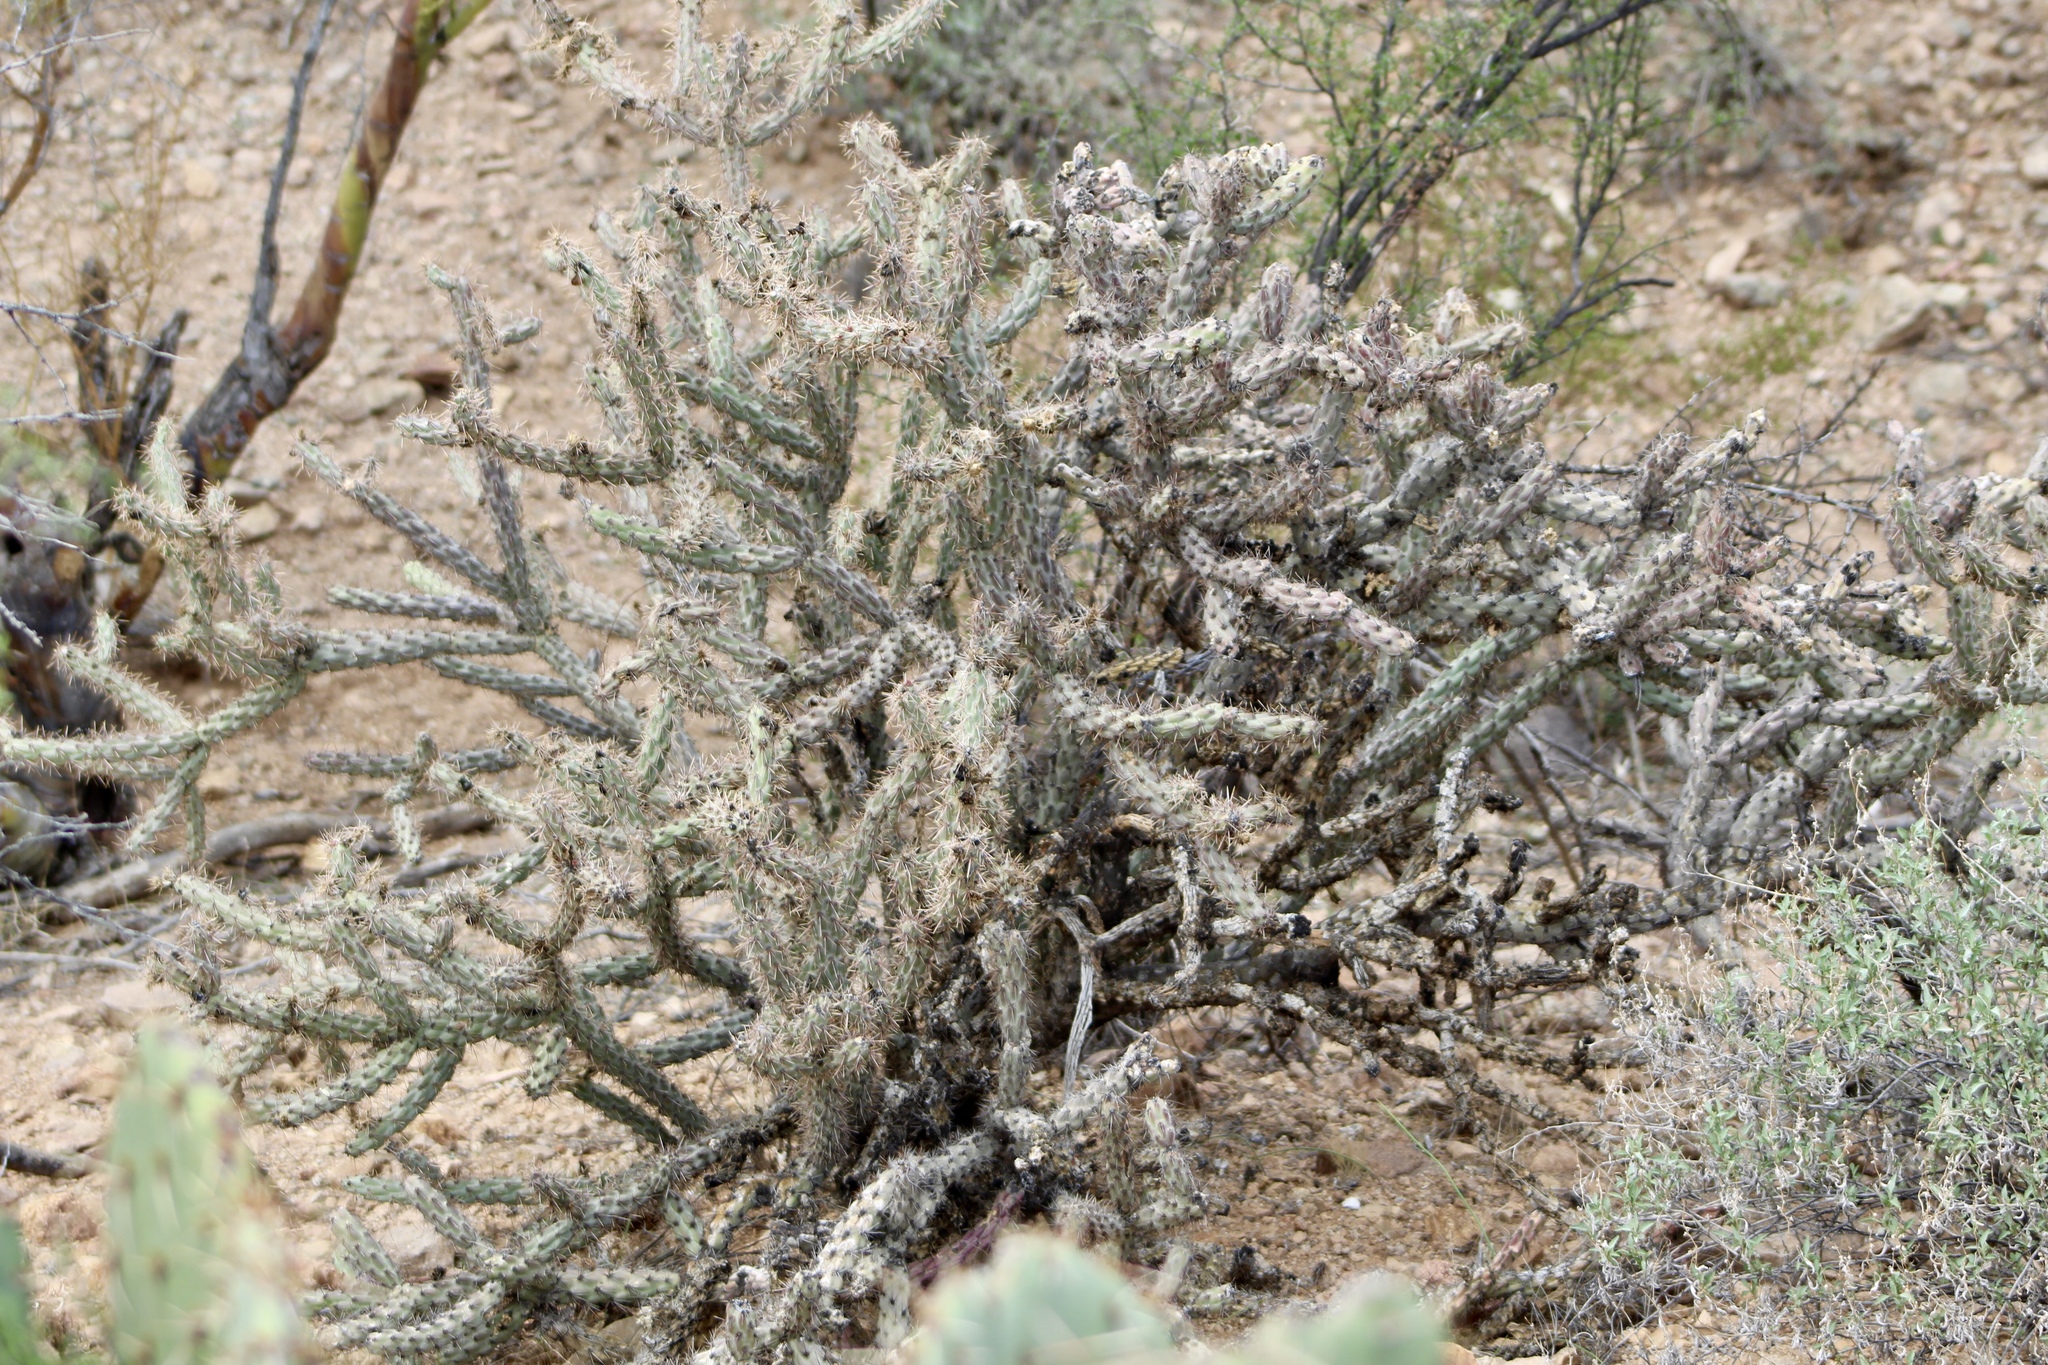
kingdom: Plantae
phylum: Tracheophyta
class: Magnoliopsida
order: Caryophyllales
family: Cactaceae
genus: Cylindropuntia
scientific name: Cylindropuntia thurberi
